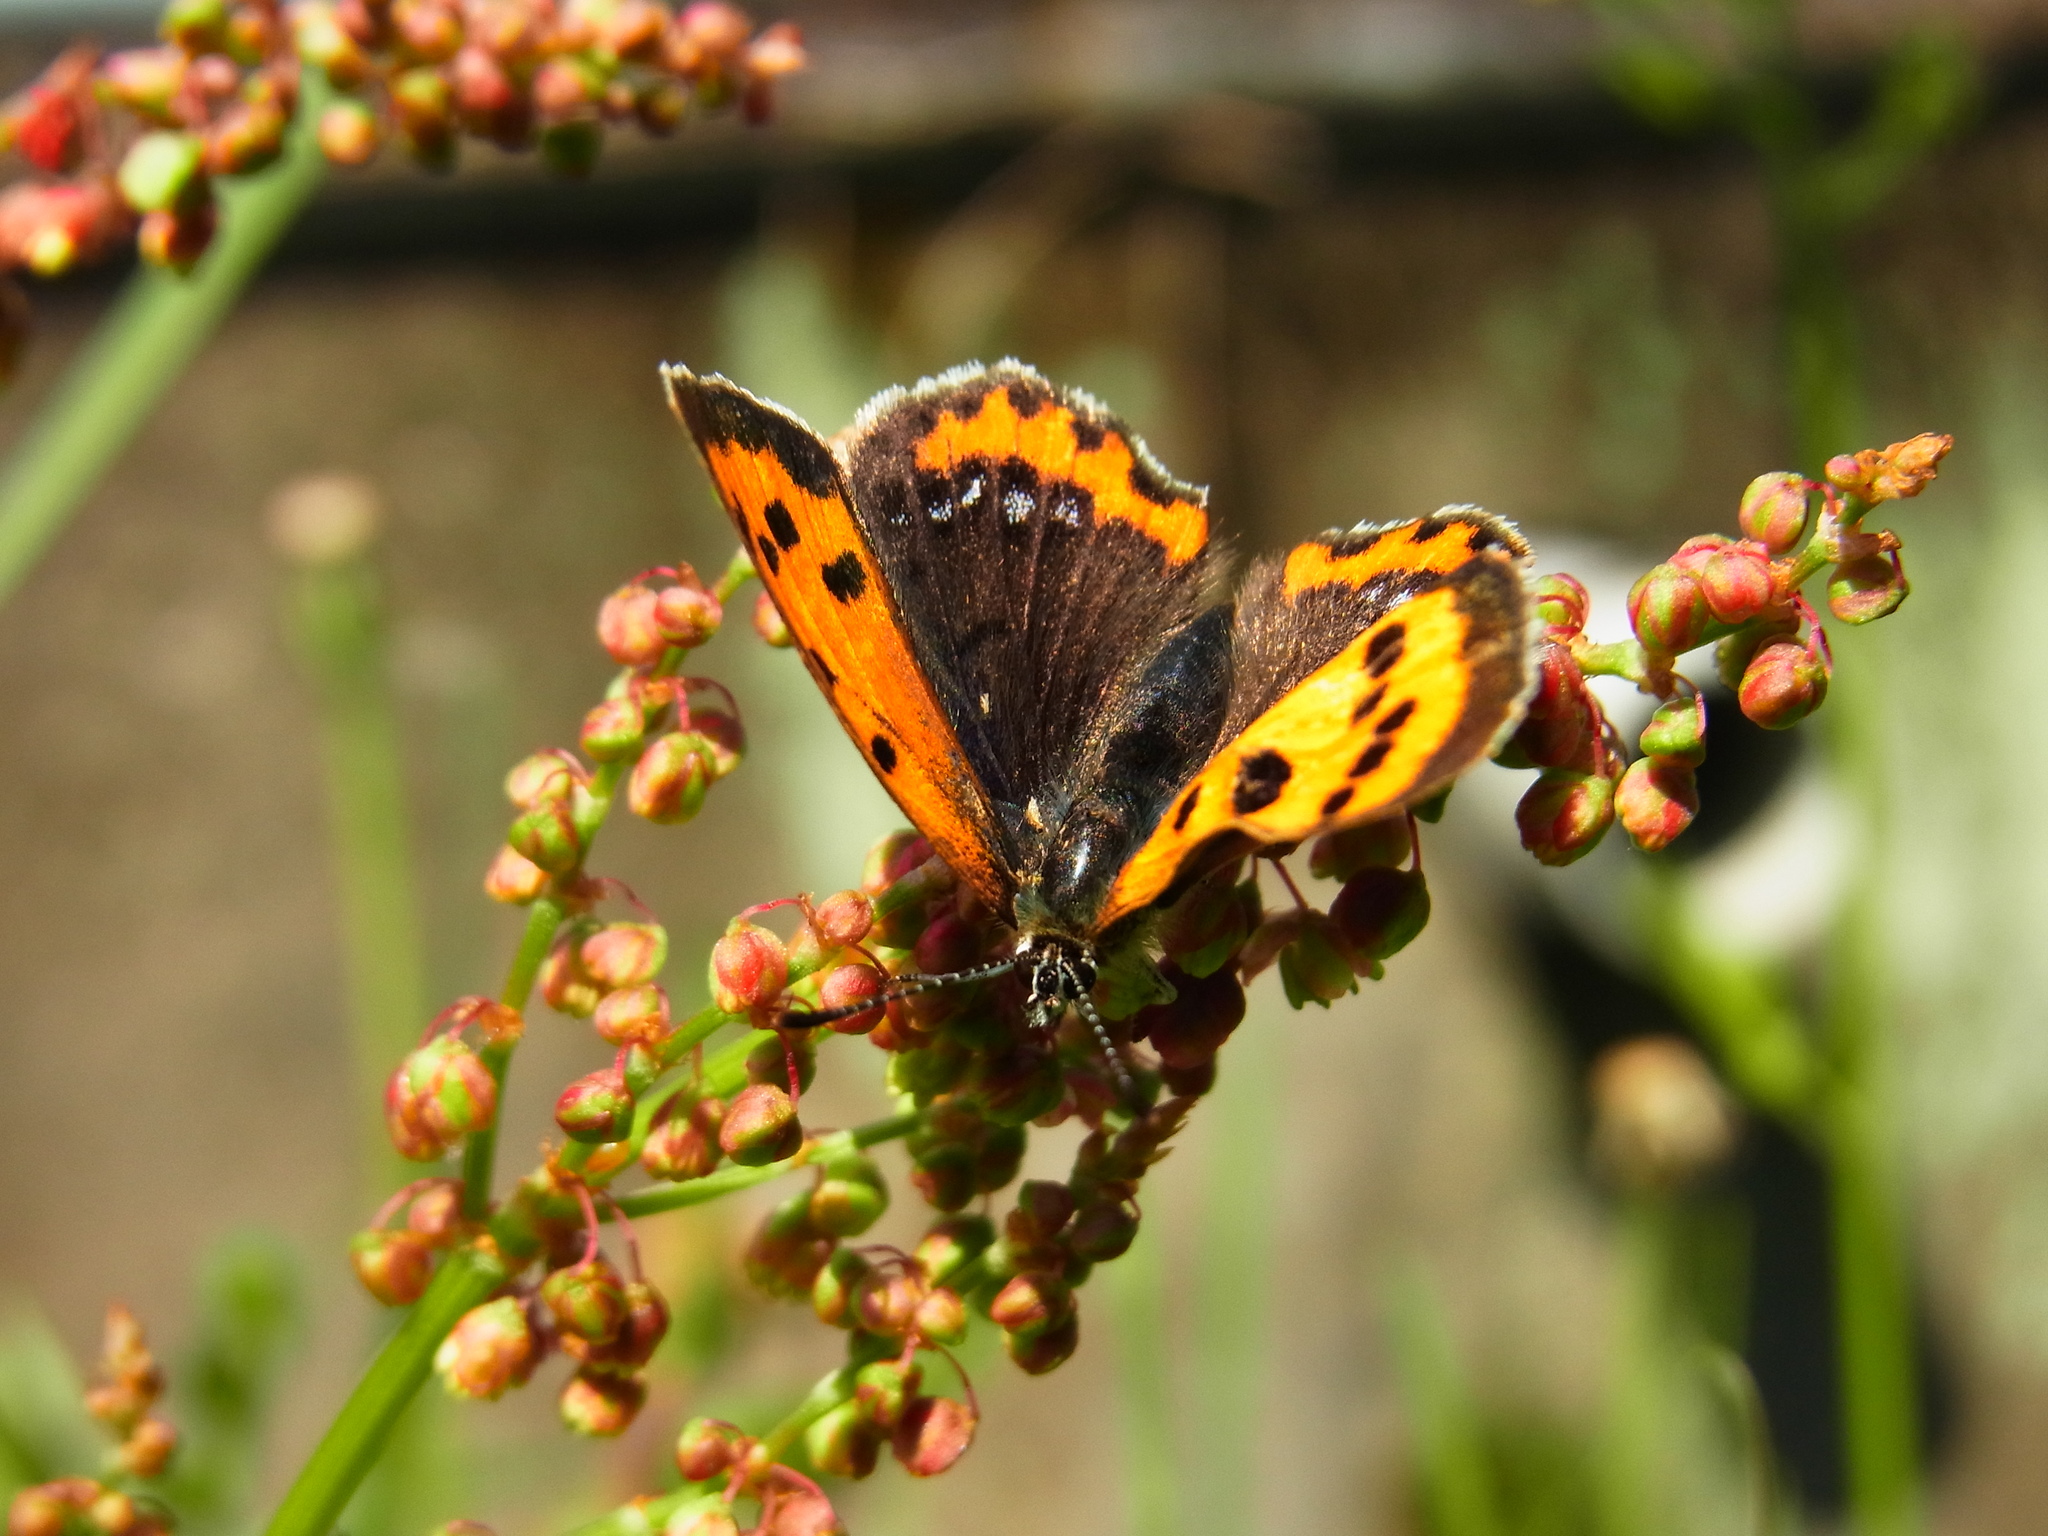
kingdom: Animalia
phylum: Arthropoda
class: Insecta
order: Lepidoptera
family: Lycaenidae
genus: Lycaena
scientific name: Lycaena phlaeas
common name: Small copper
